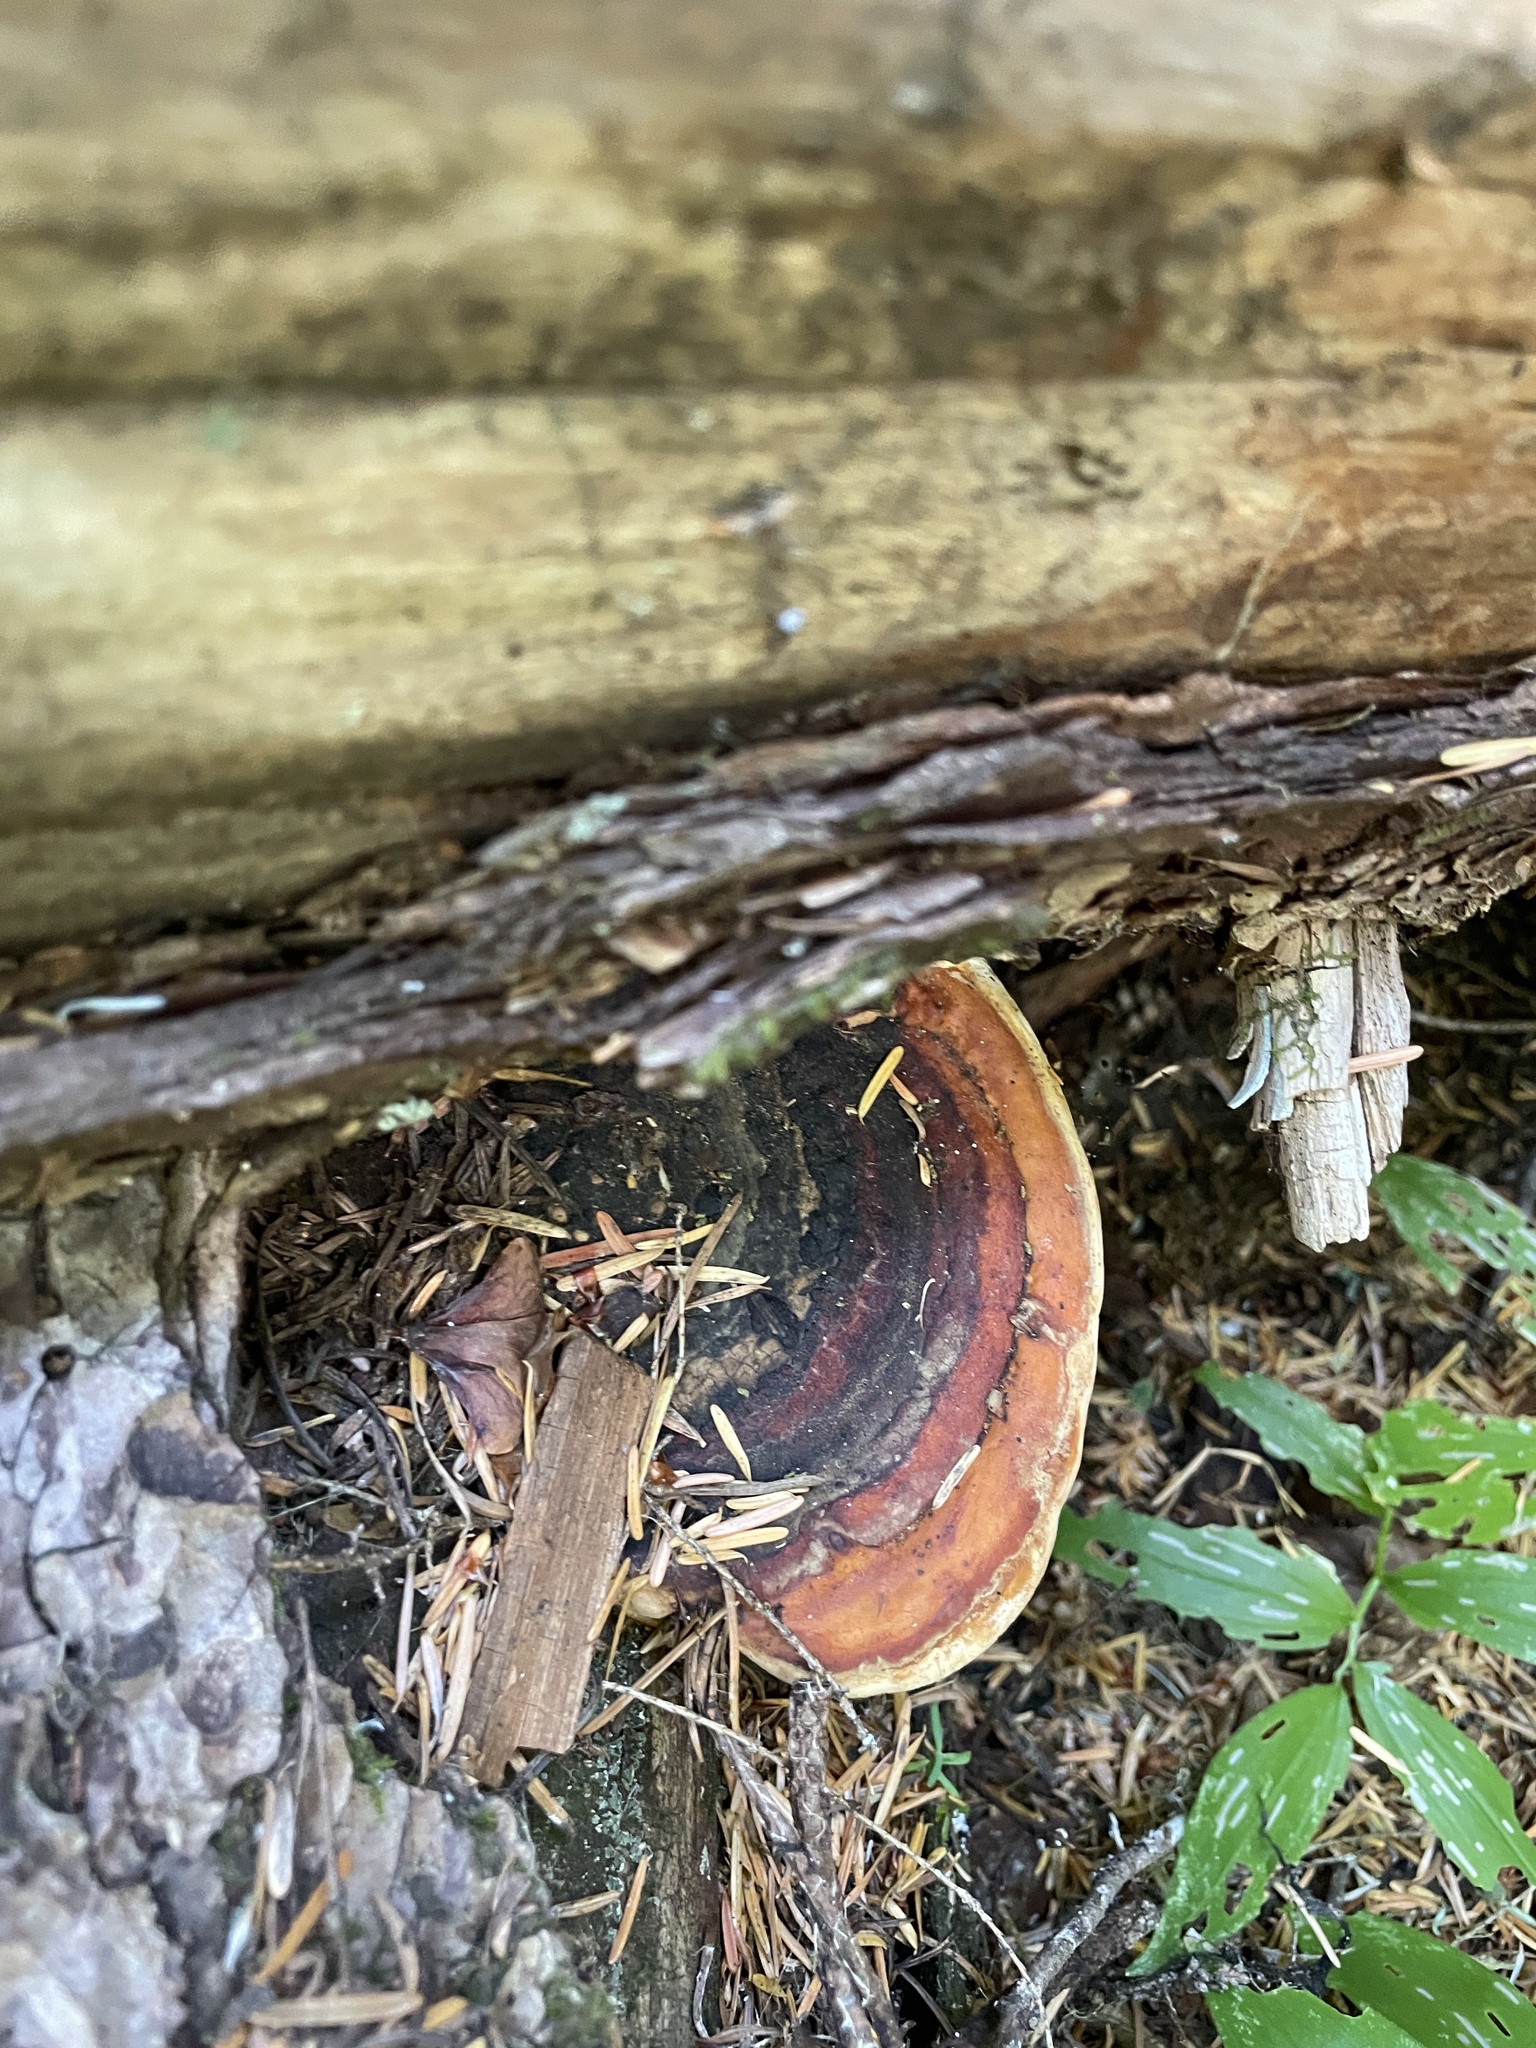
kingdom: Fungi
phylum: Basidiomycota
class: Agaricomycetes
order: Polyporales
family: Fomitopsidaceae
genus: Fomitopsis
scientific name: Fomitopsis mounceae
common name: Northern red belt
